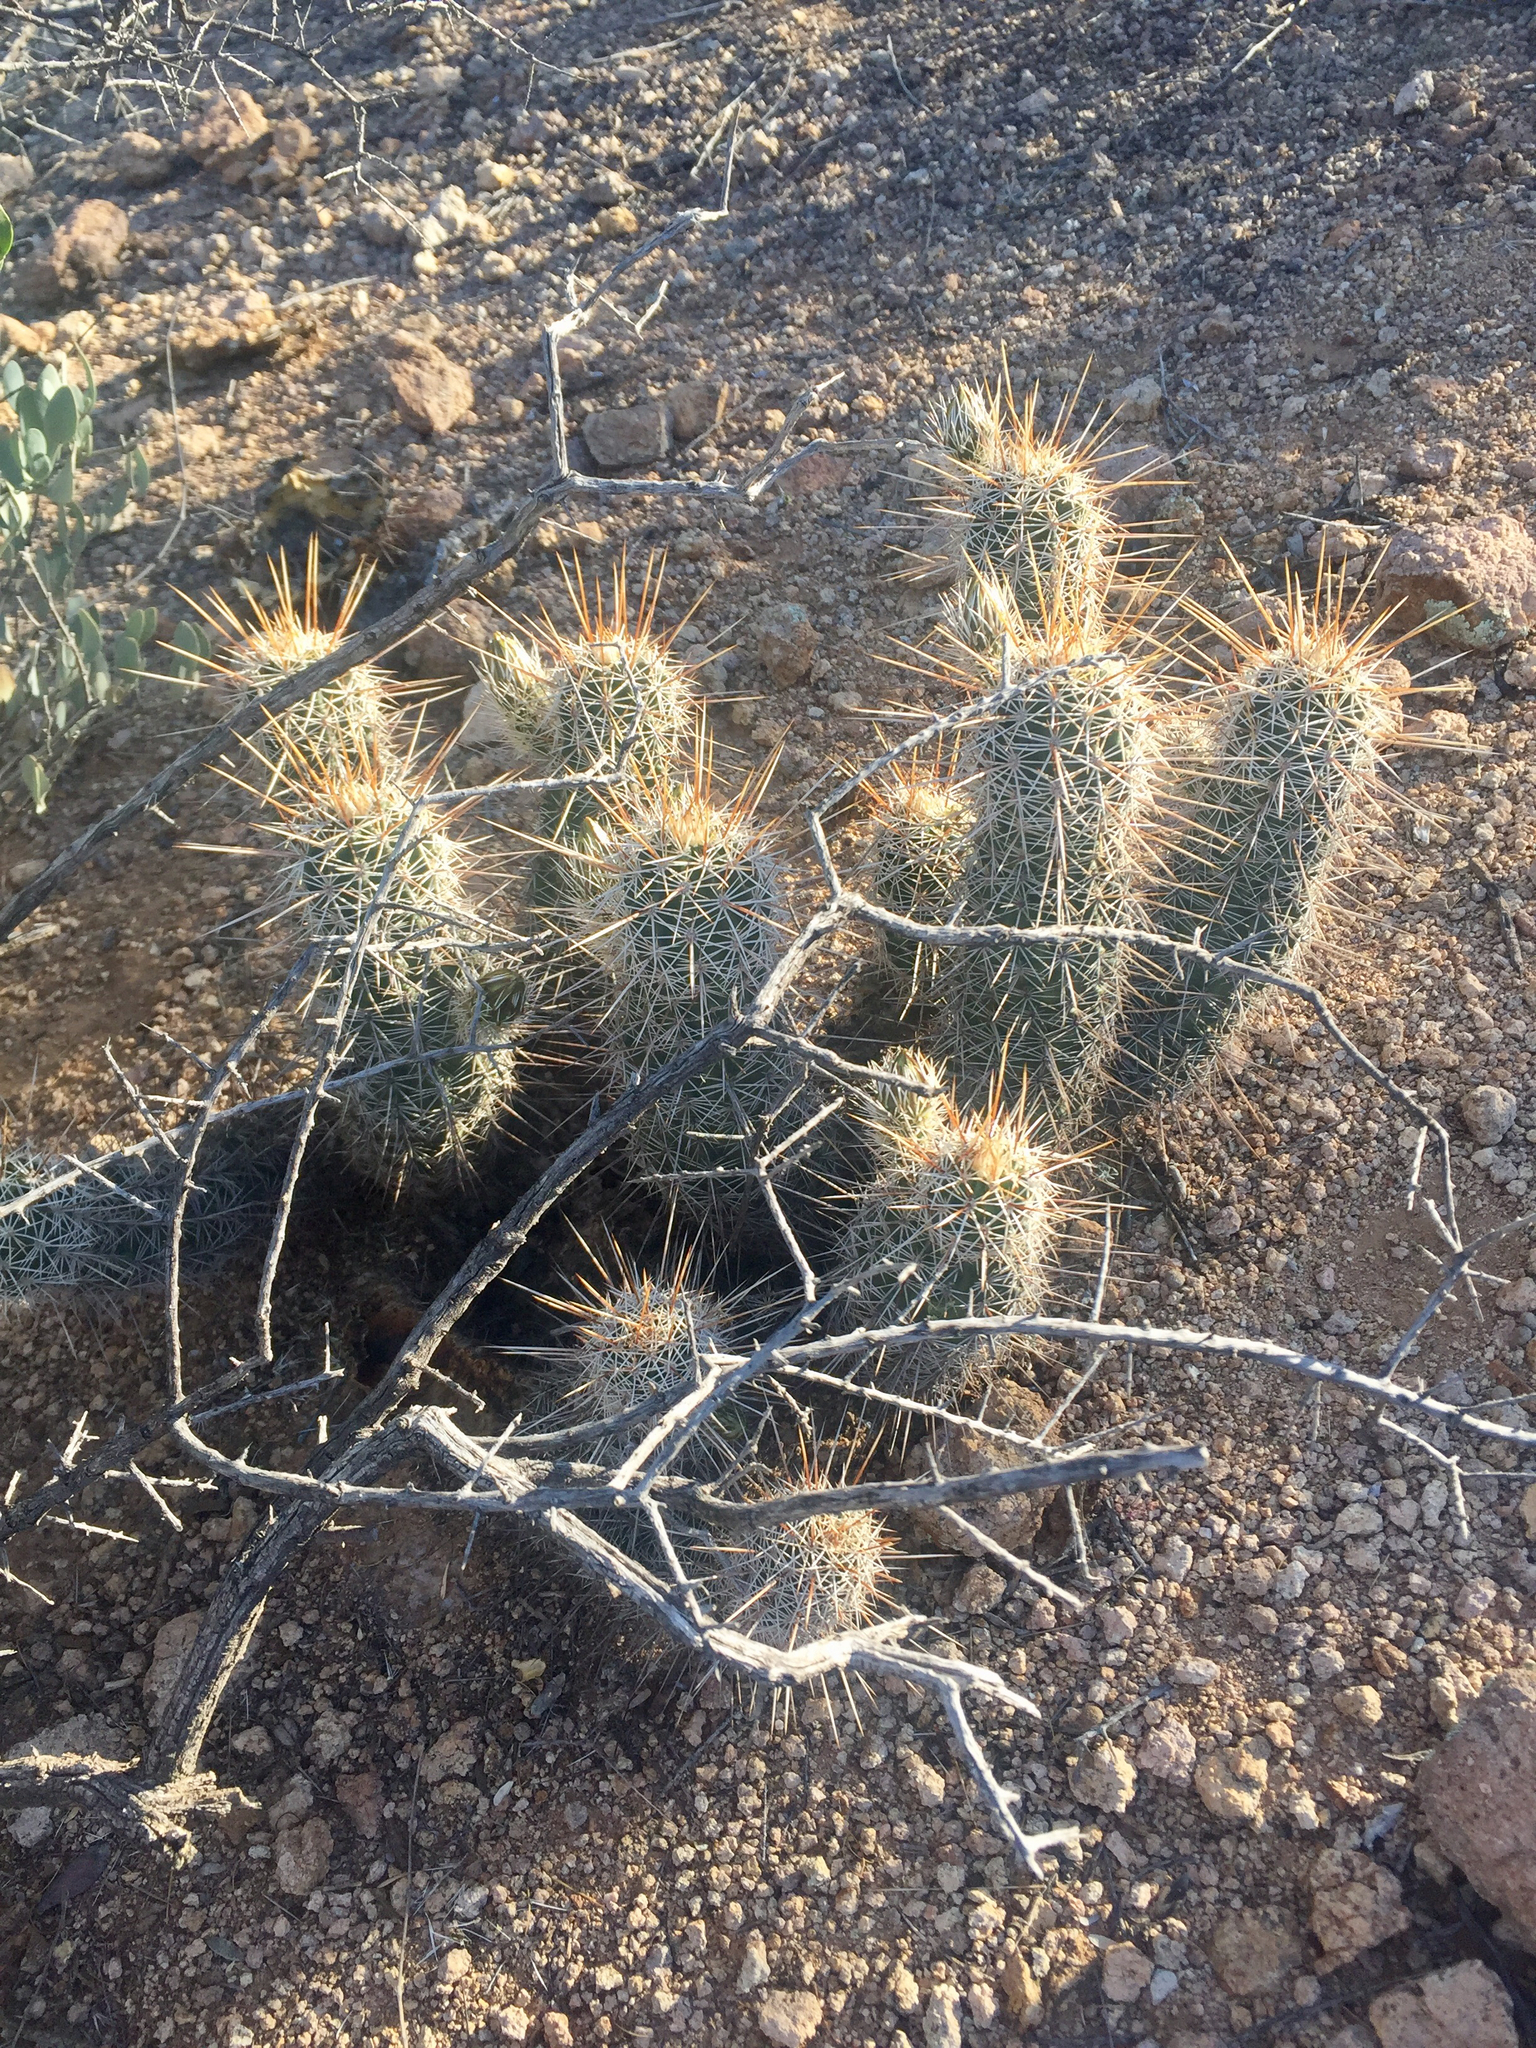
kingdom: Plantae
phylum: Tracheophyta
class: Magnoliopsida
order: Caryophyllales
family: Cactaceae
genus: Echinocereus
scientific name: Echinocereus fasciculatus
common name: Bundle hedgehog
